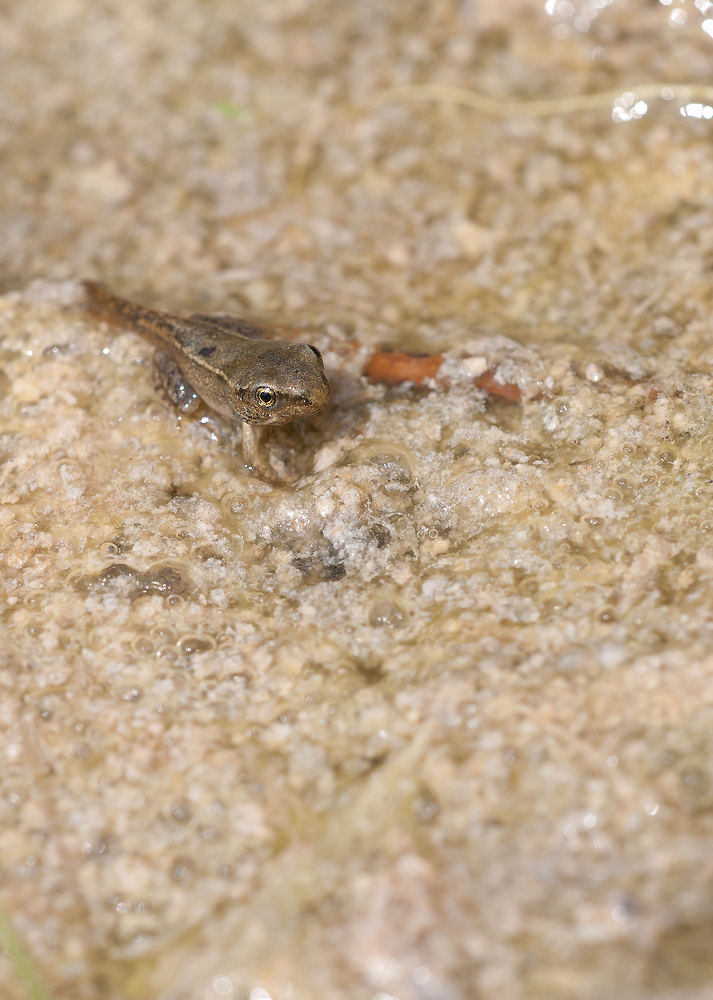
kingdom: Animalia
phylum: Chordata
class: Amphibia
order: Anura
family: Ranidae
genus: Rana
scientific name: Rana temporaria
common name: Common frog
